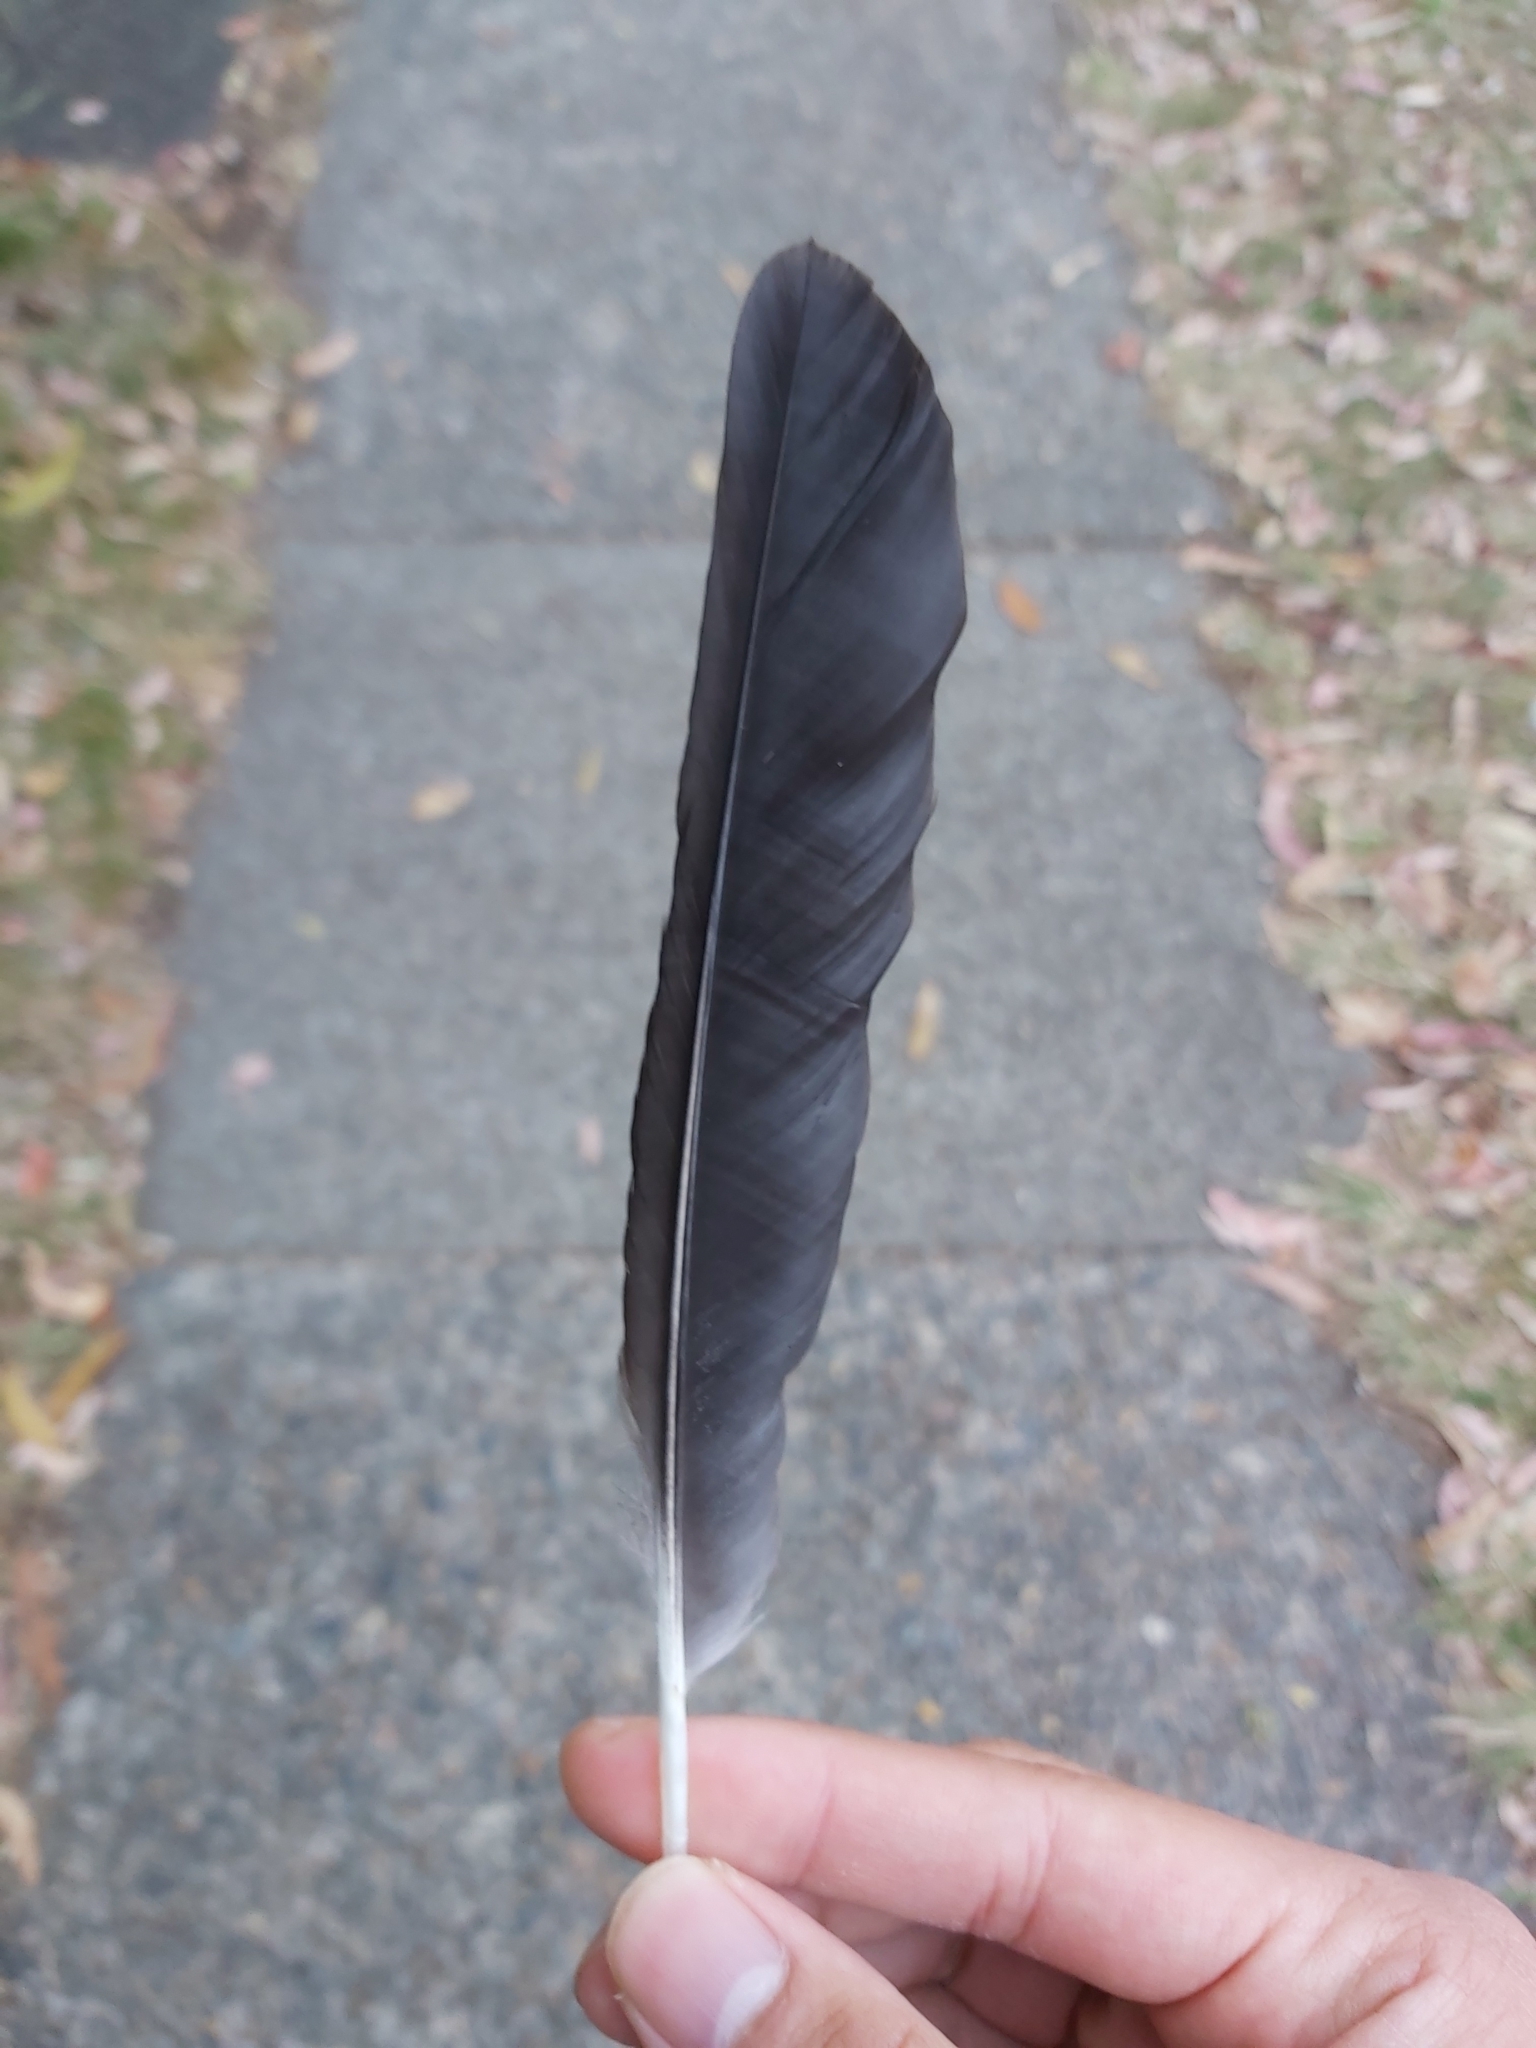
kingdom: Animalia
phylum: Chordata
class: Aves
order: Passeriformes
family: Cracticidae
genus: Gymnorhina
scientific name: Gymnorhina tibicen
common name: Australian magpie
